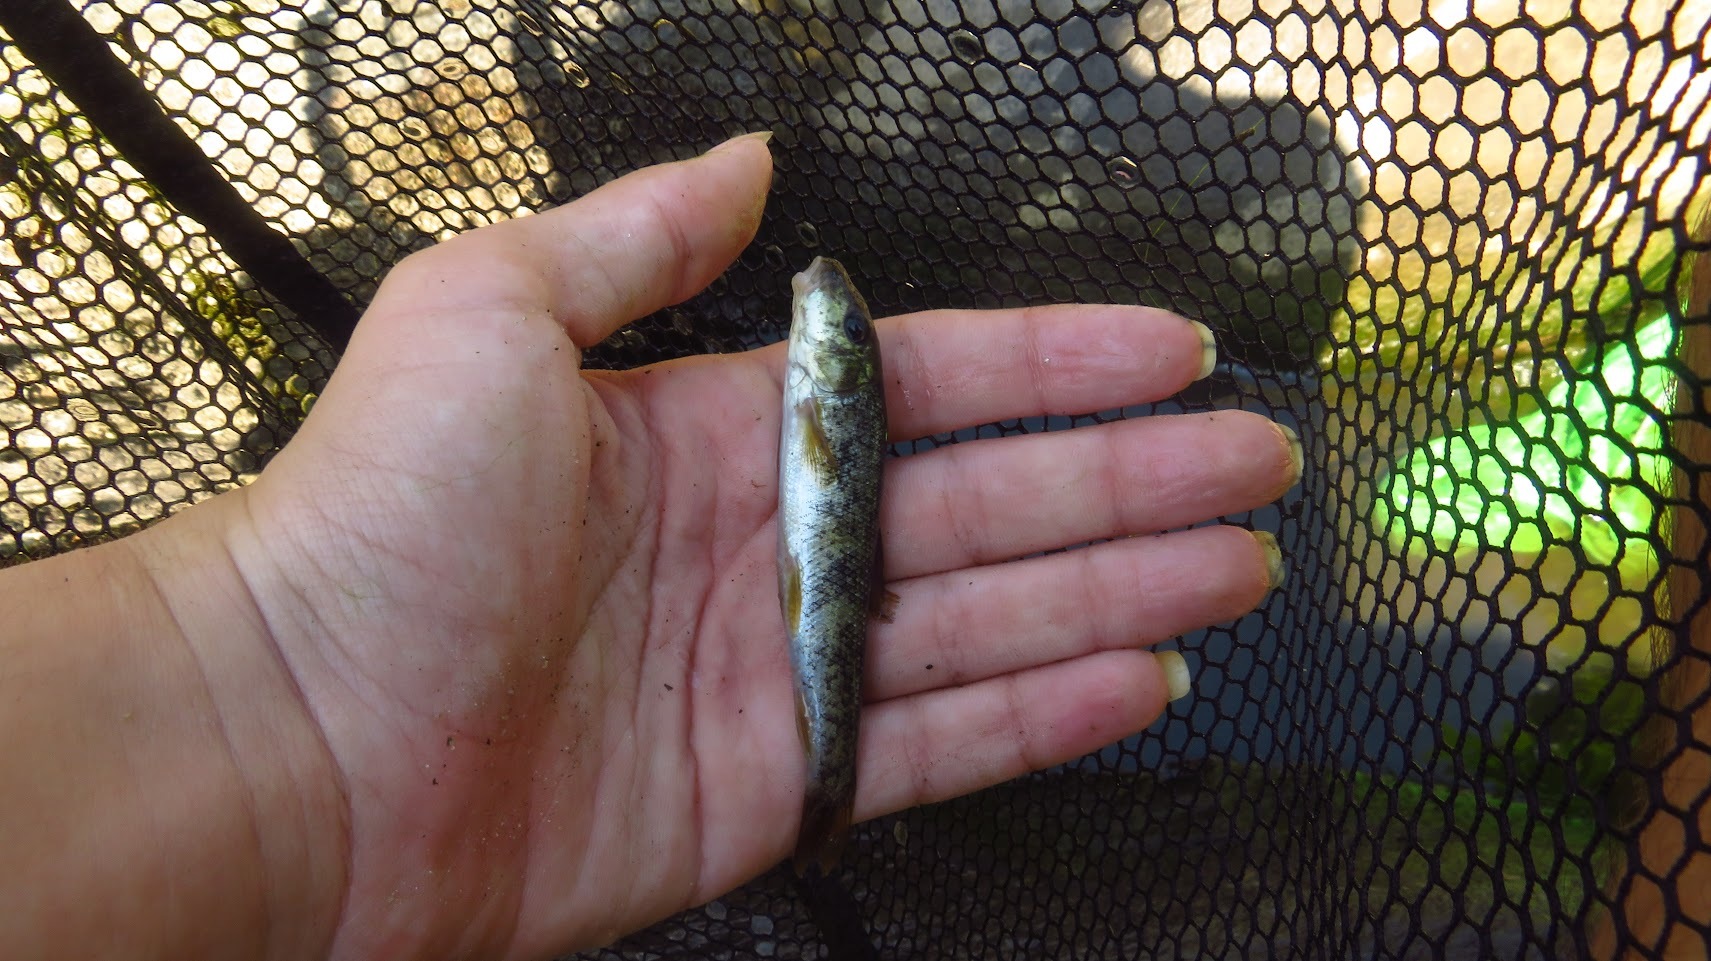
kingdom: Animalia
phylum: Chordata
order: Cypriniformes
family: Catostomidae
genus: Catostomus
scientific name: Catostomus commersonii
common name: White sucker
